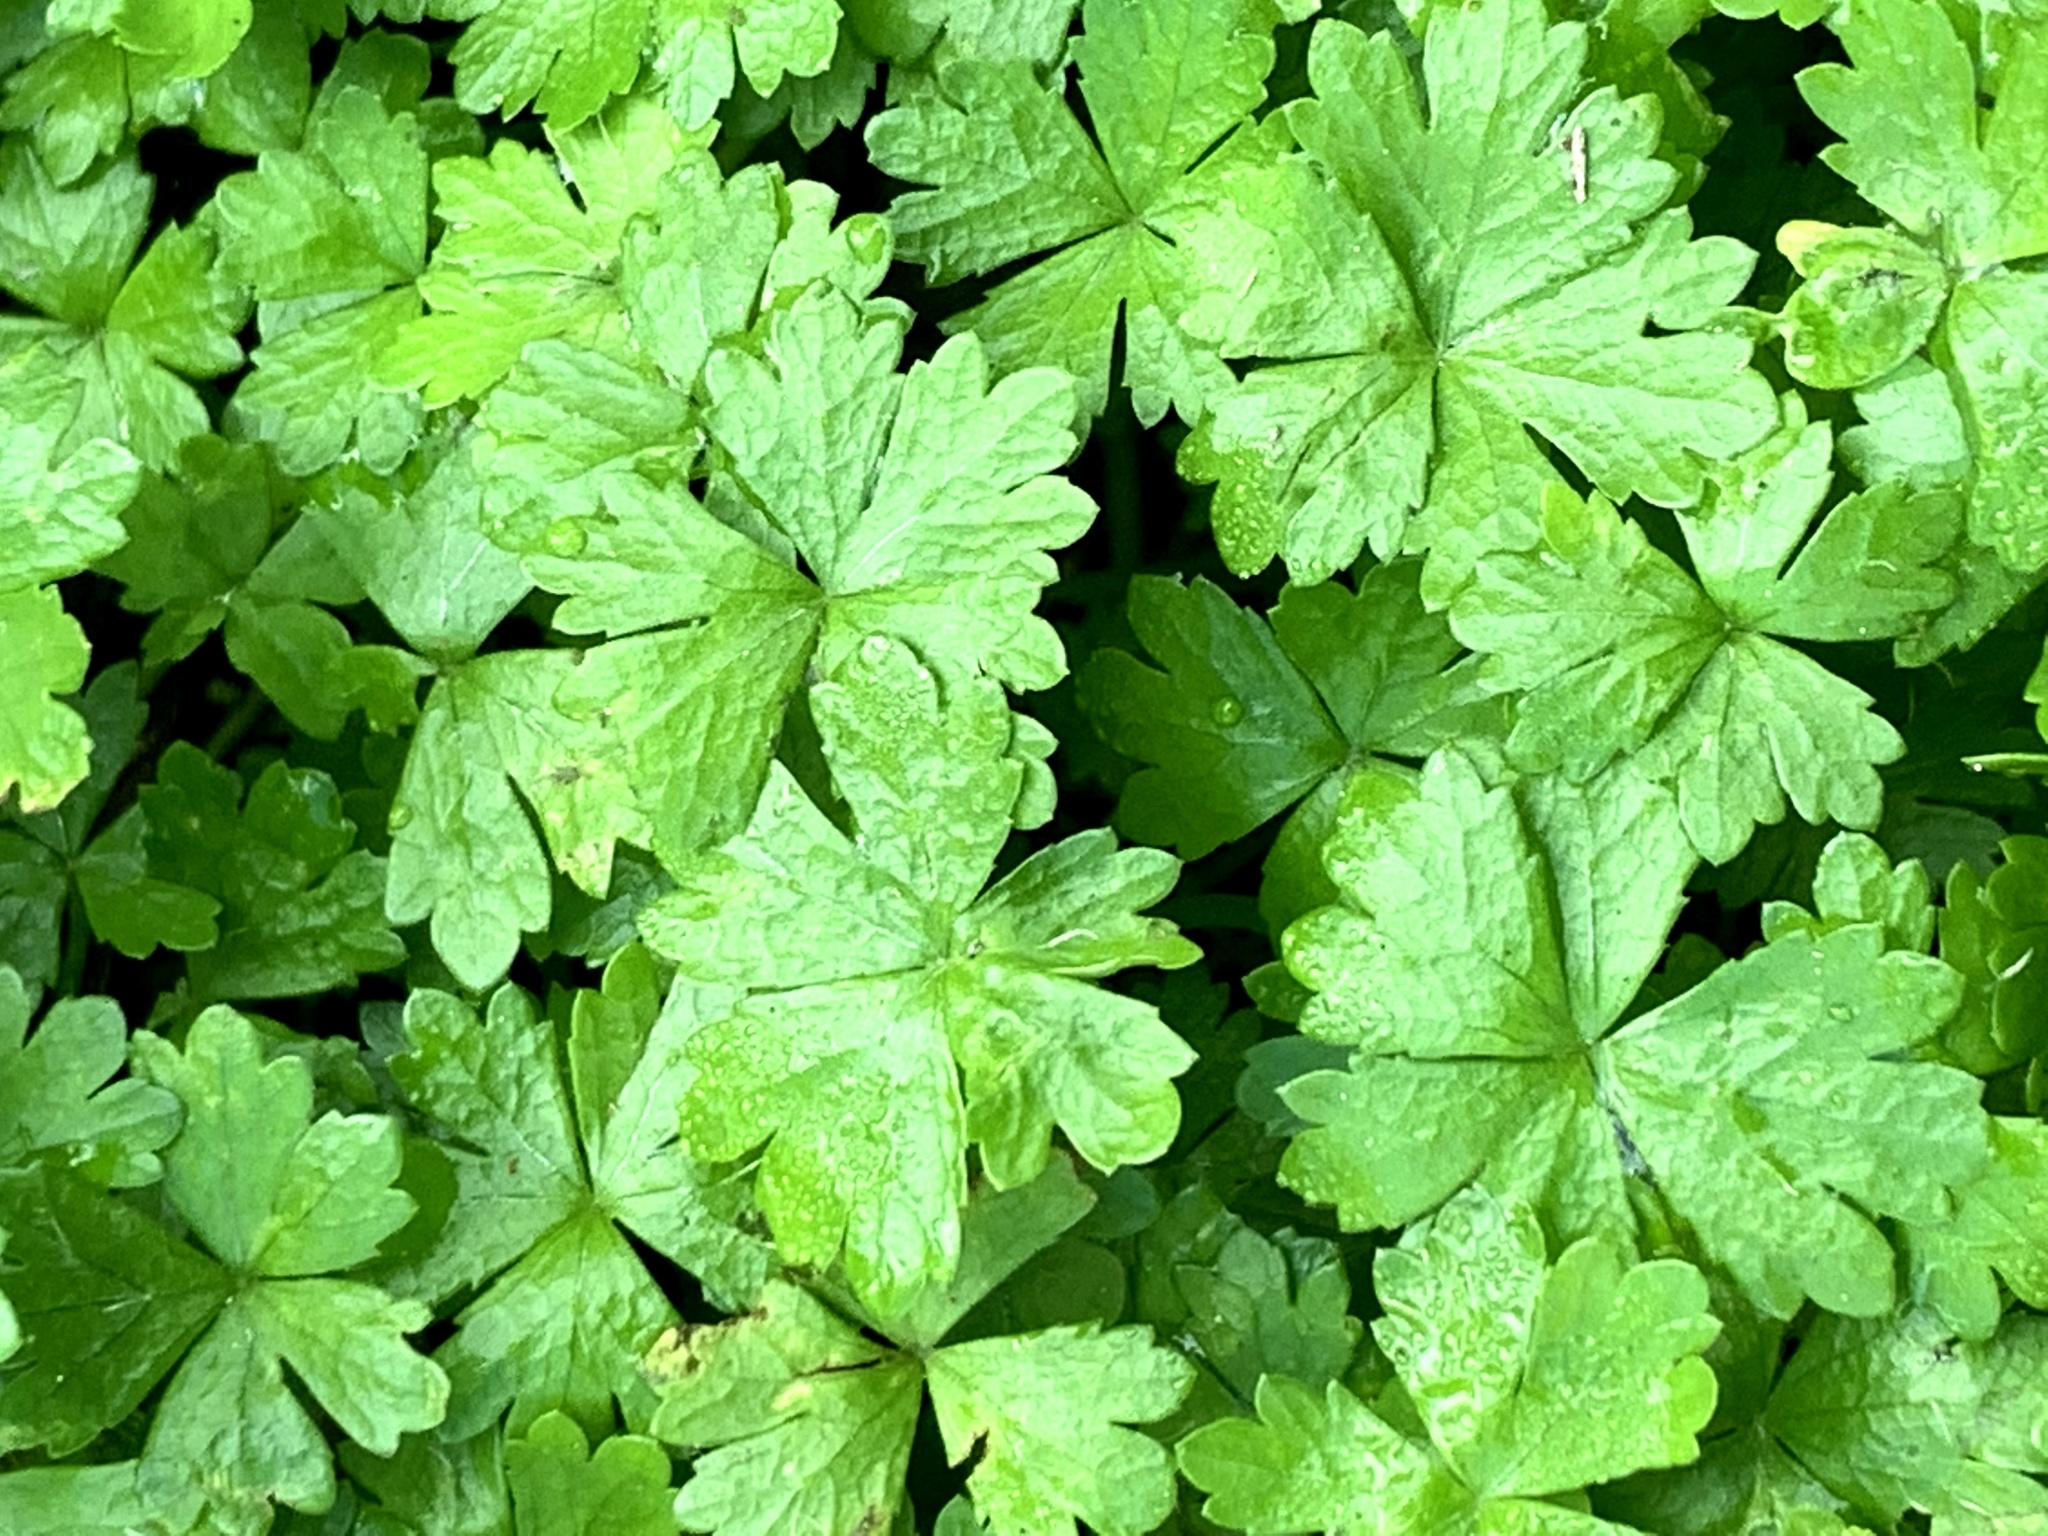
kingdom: Plantae
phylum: Tracheophyta
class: Magnoliopsida
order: Apiales
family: Araliaceae
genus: Hydrocotyle
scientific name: Hydrocotyle tripartita
